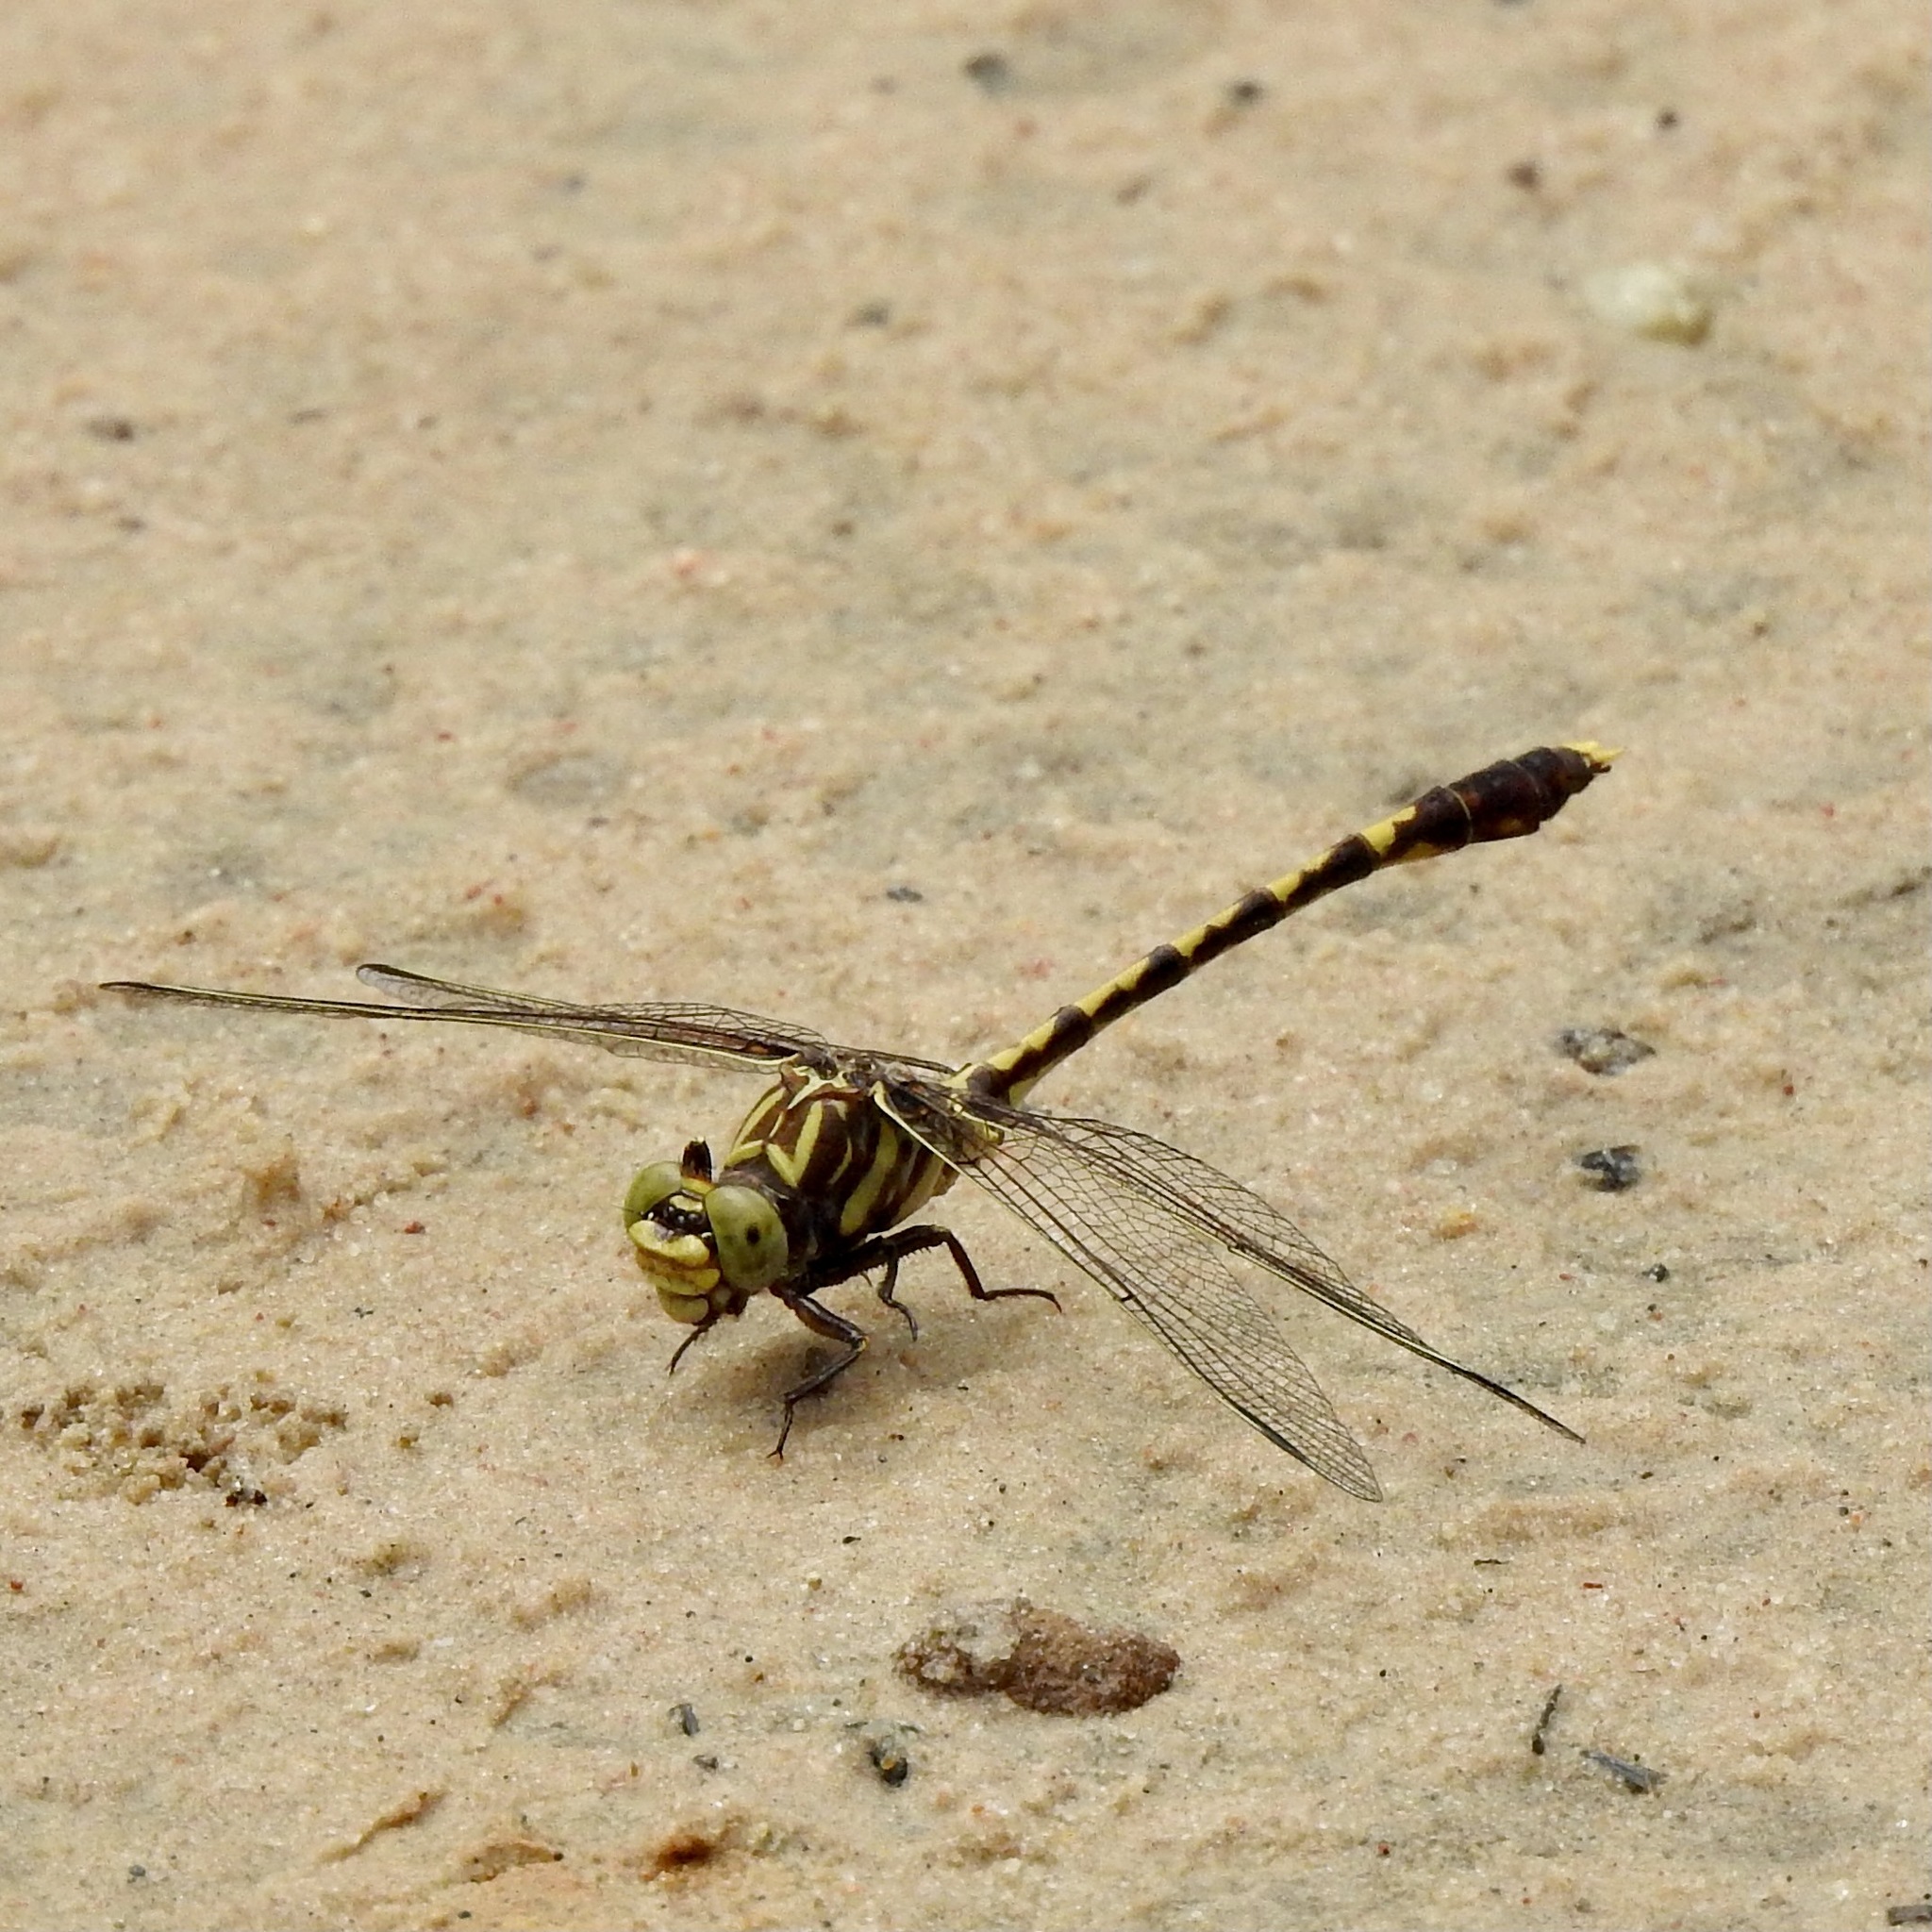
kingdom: Animalia
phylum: Arthropoda
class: Insecta
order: Odonata
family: Gomphidae
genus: Progomphus
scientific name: Progomphus obscurus
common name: Common sanddragon
